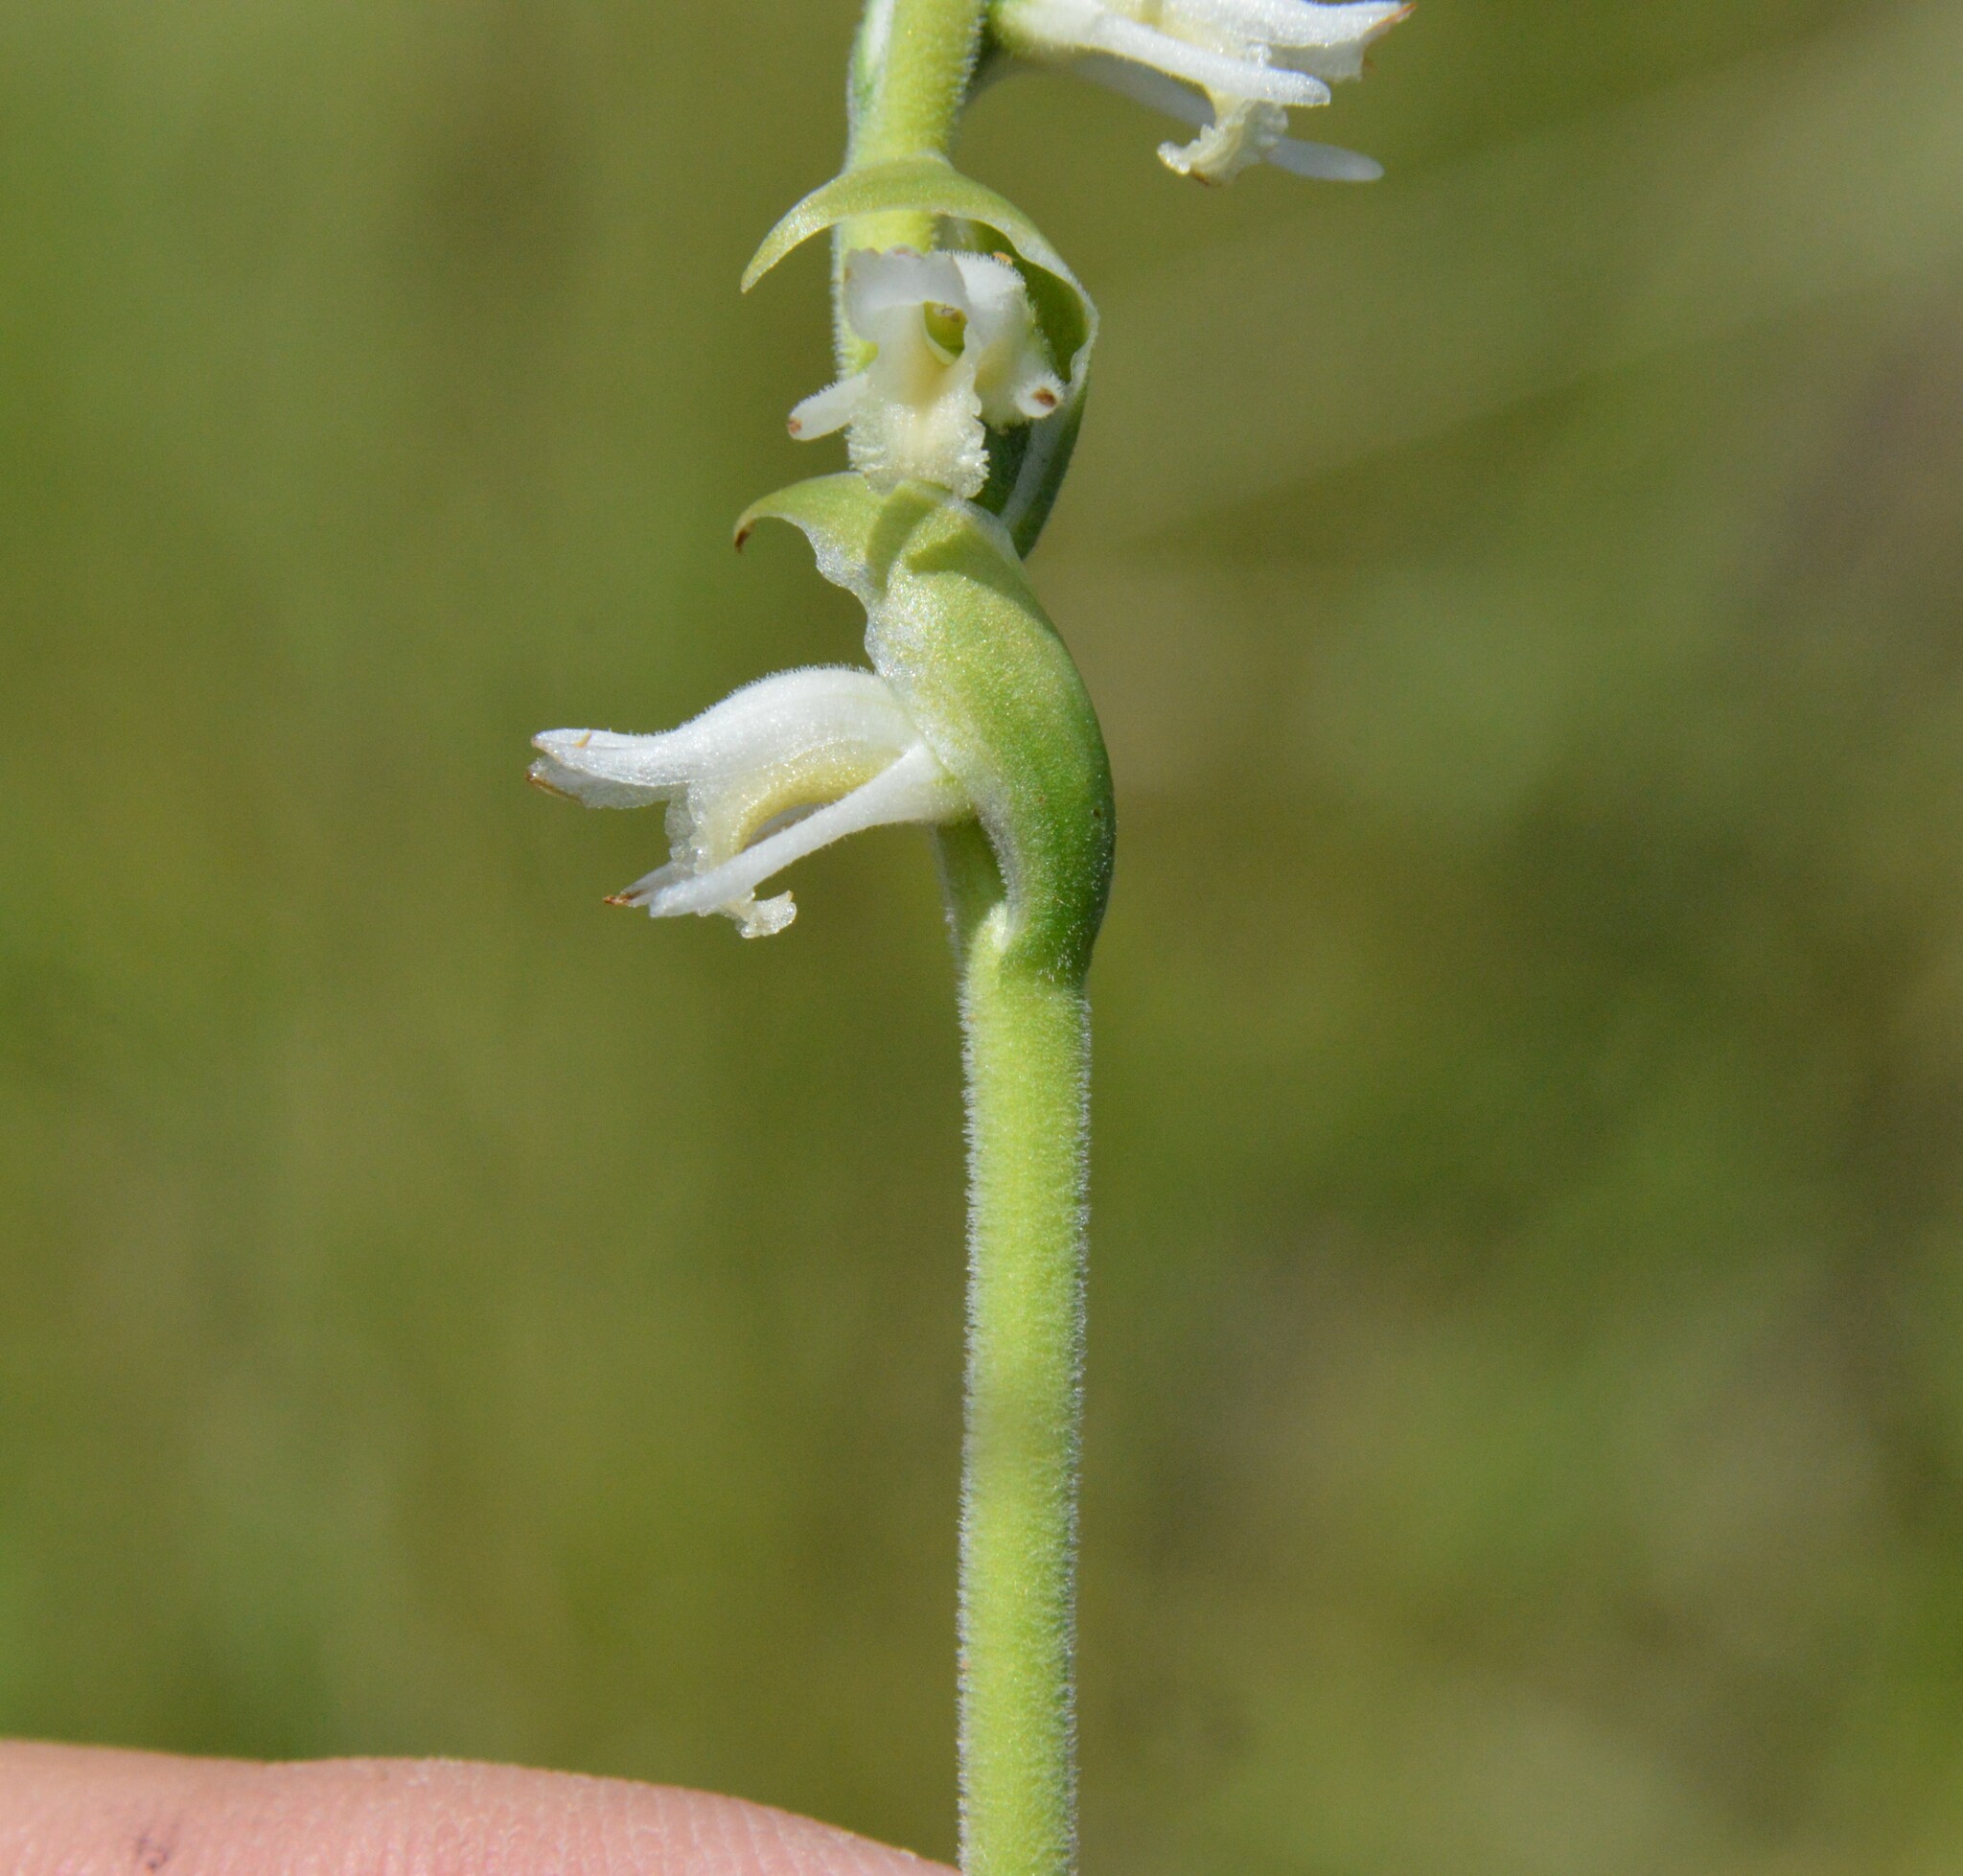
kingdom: Plantae
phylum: Tracheophyta
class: Liliopsida
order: Asparagales
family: Orchidaceae
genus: Spiranthes
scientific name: Spiranthes vernalis
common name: Spring ladies'-tresses
